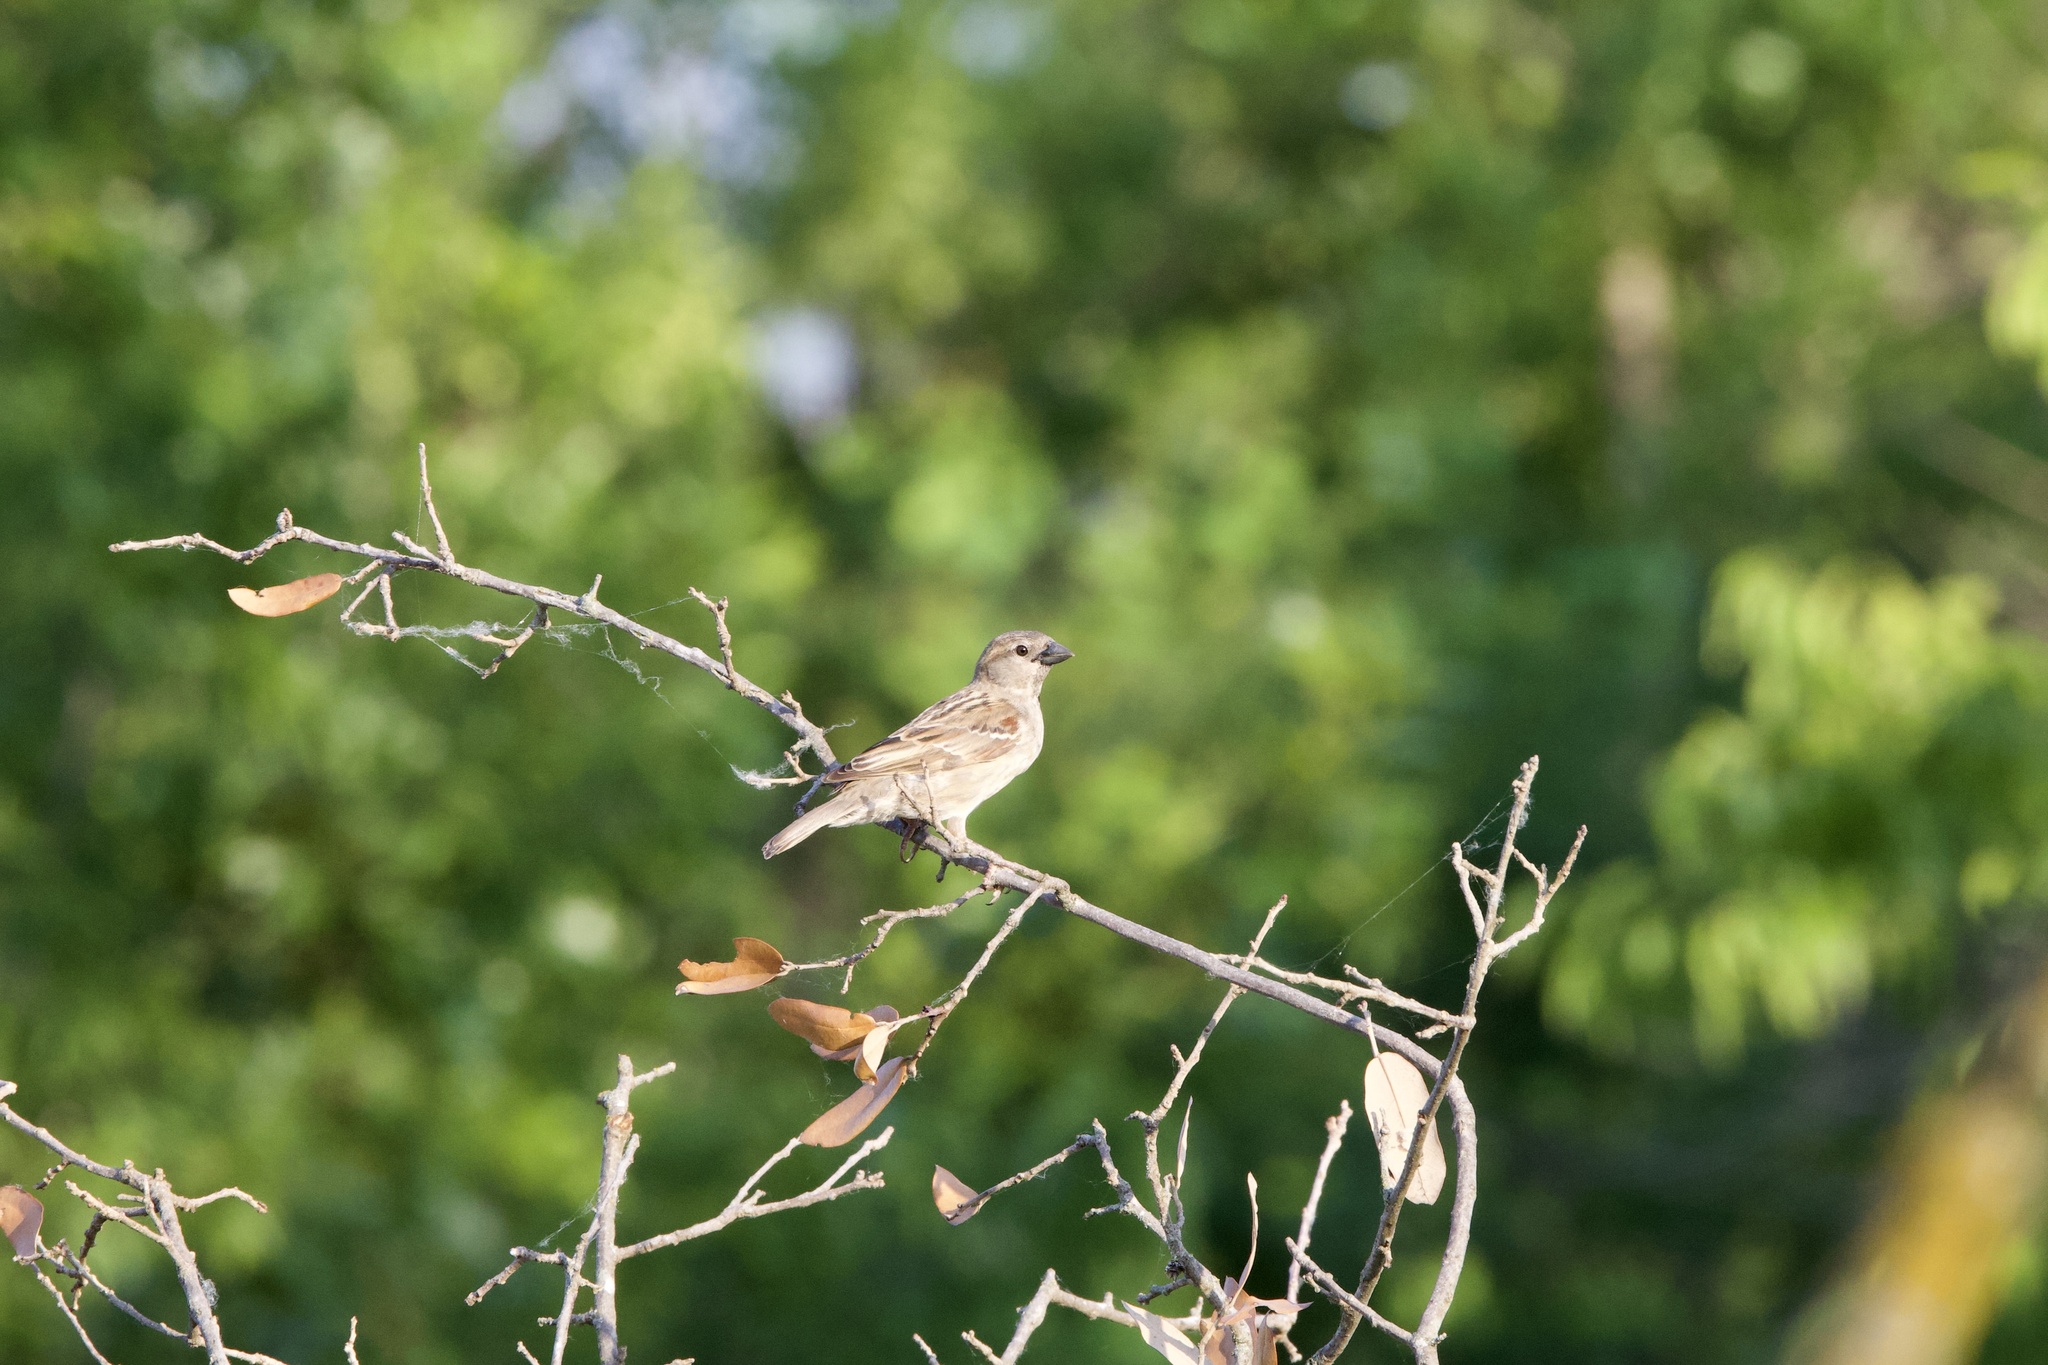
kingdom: Animalia
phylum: Chordata
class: Aves
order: Passeriformes
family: Passeridae
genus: Passer
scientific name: Passer domesticus
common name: House sparrow
